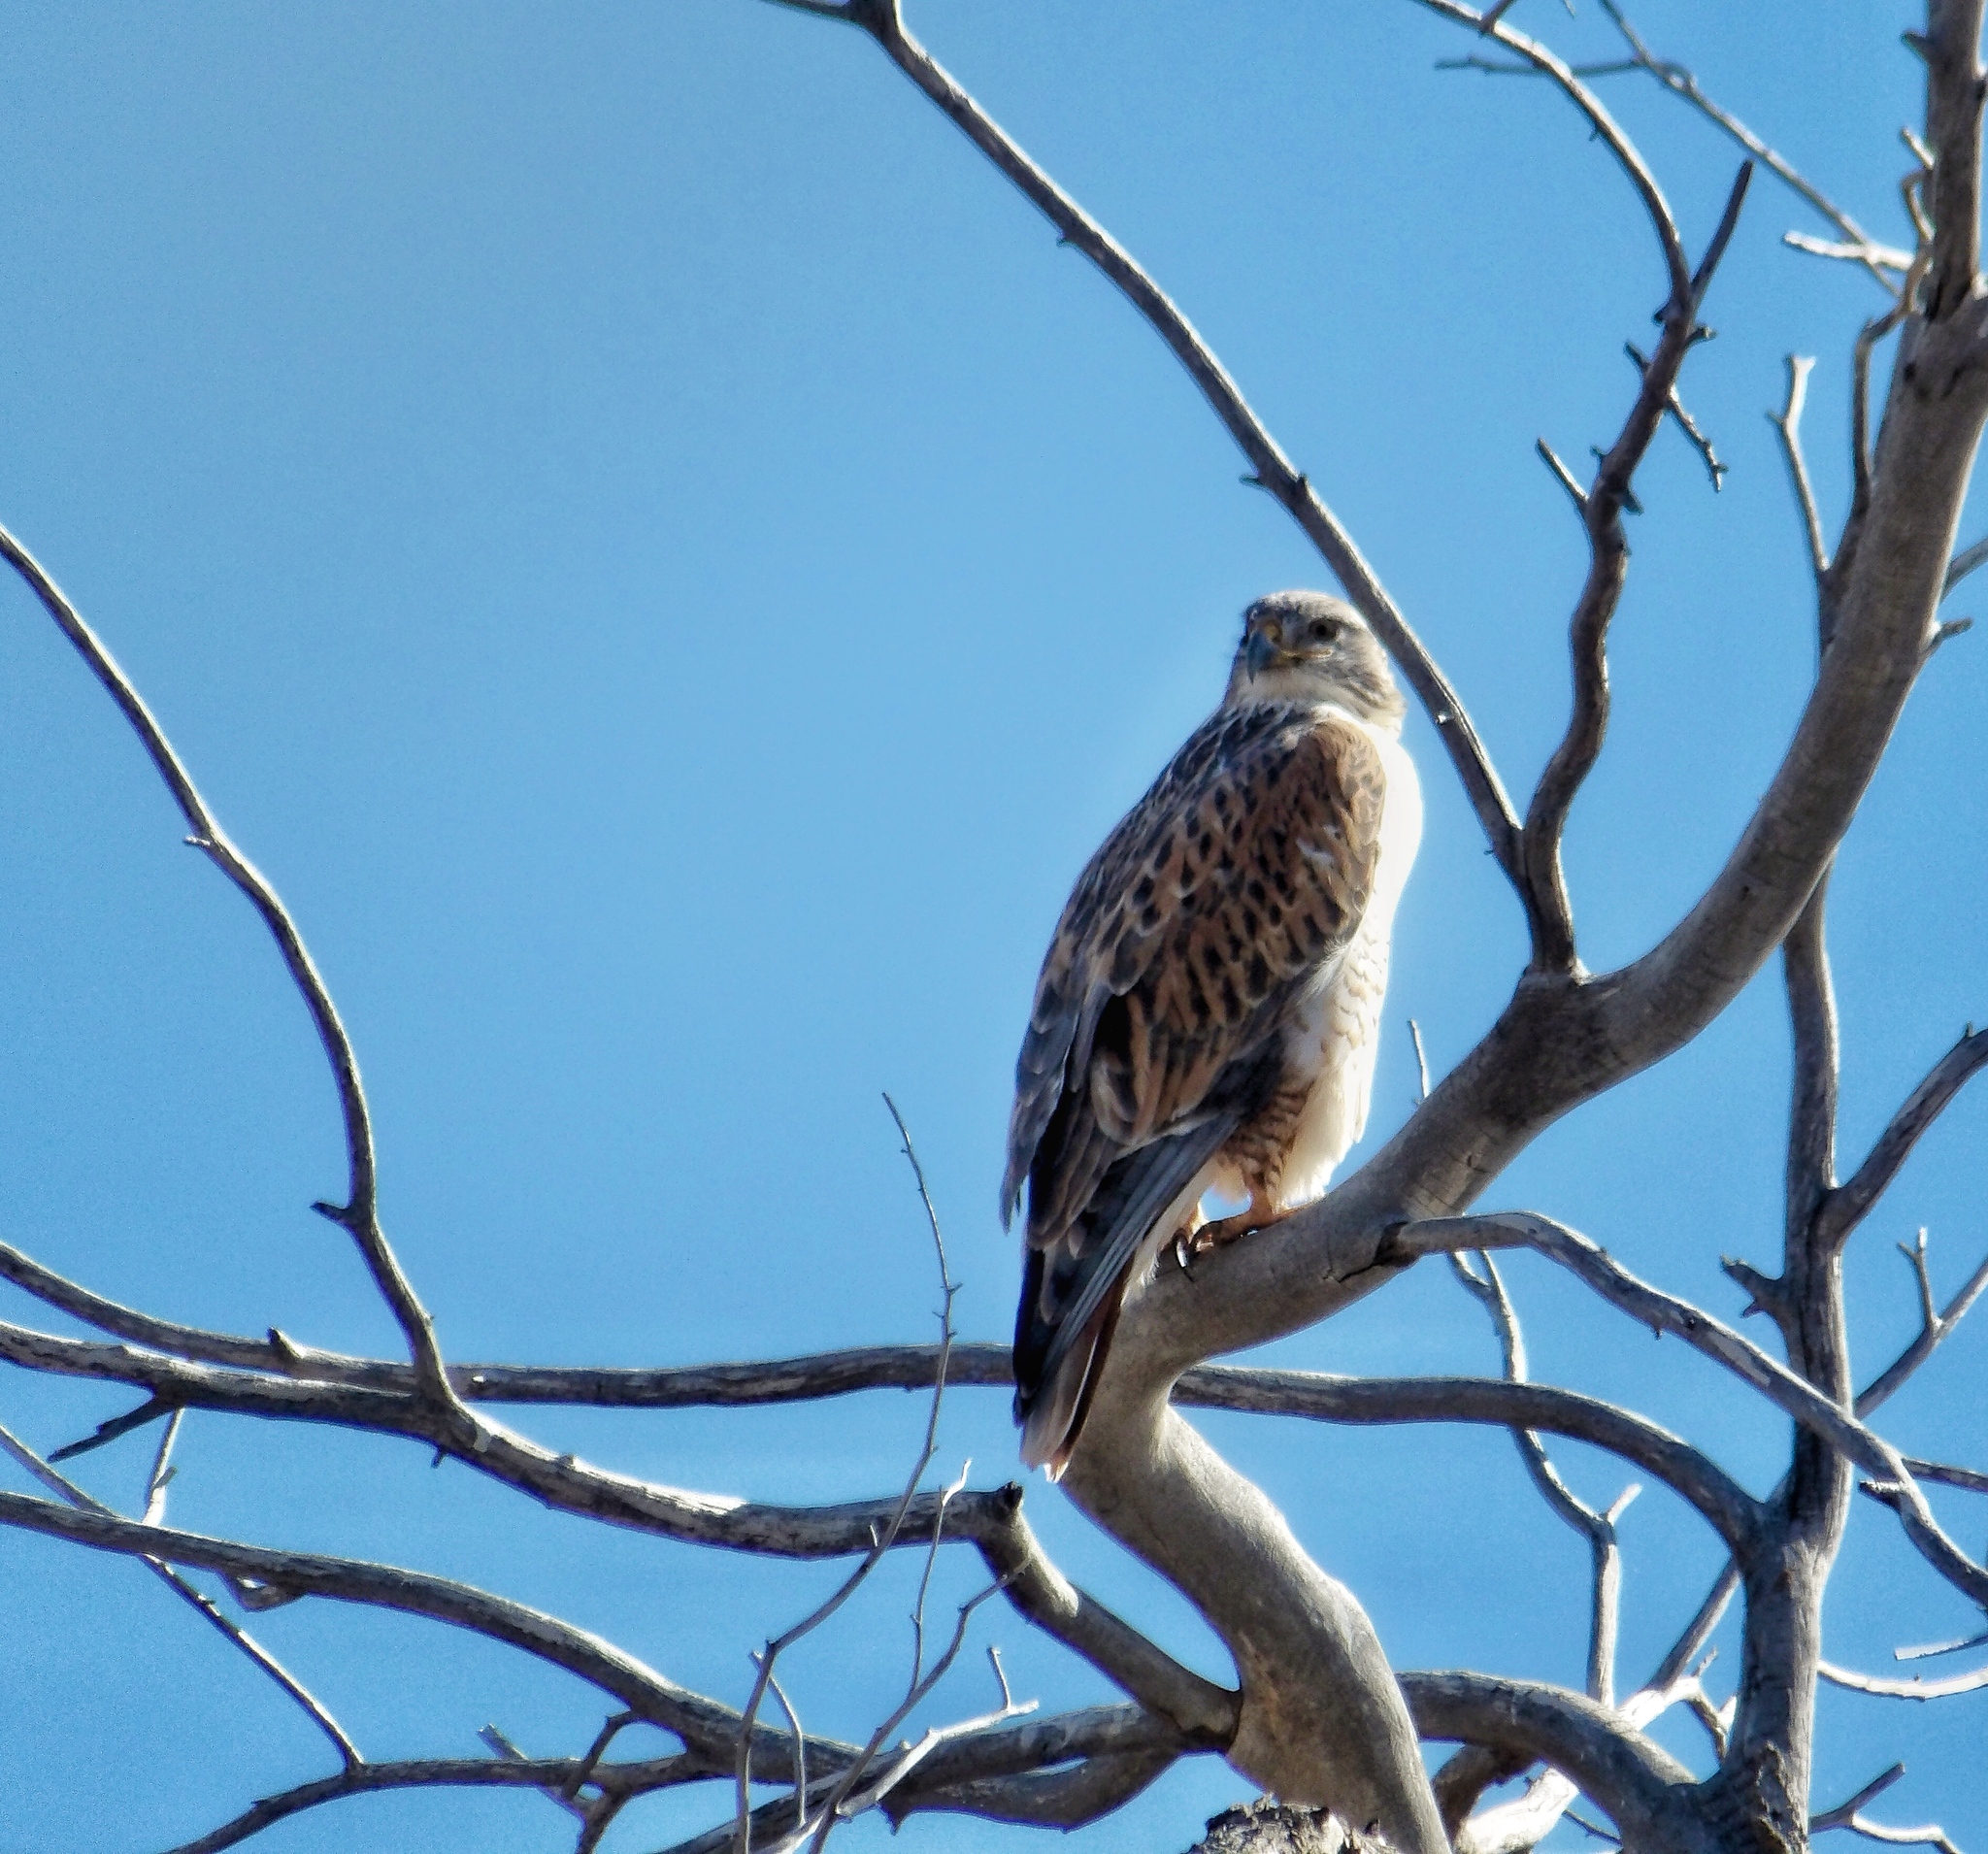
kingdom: Animalia
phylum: Chordata
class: Aves
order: Accipitriformes
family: Accipitridae
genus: Buteo
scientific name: Buteo regalis
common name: Ferruginous hawk
